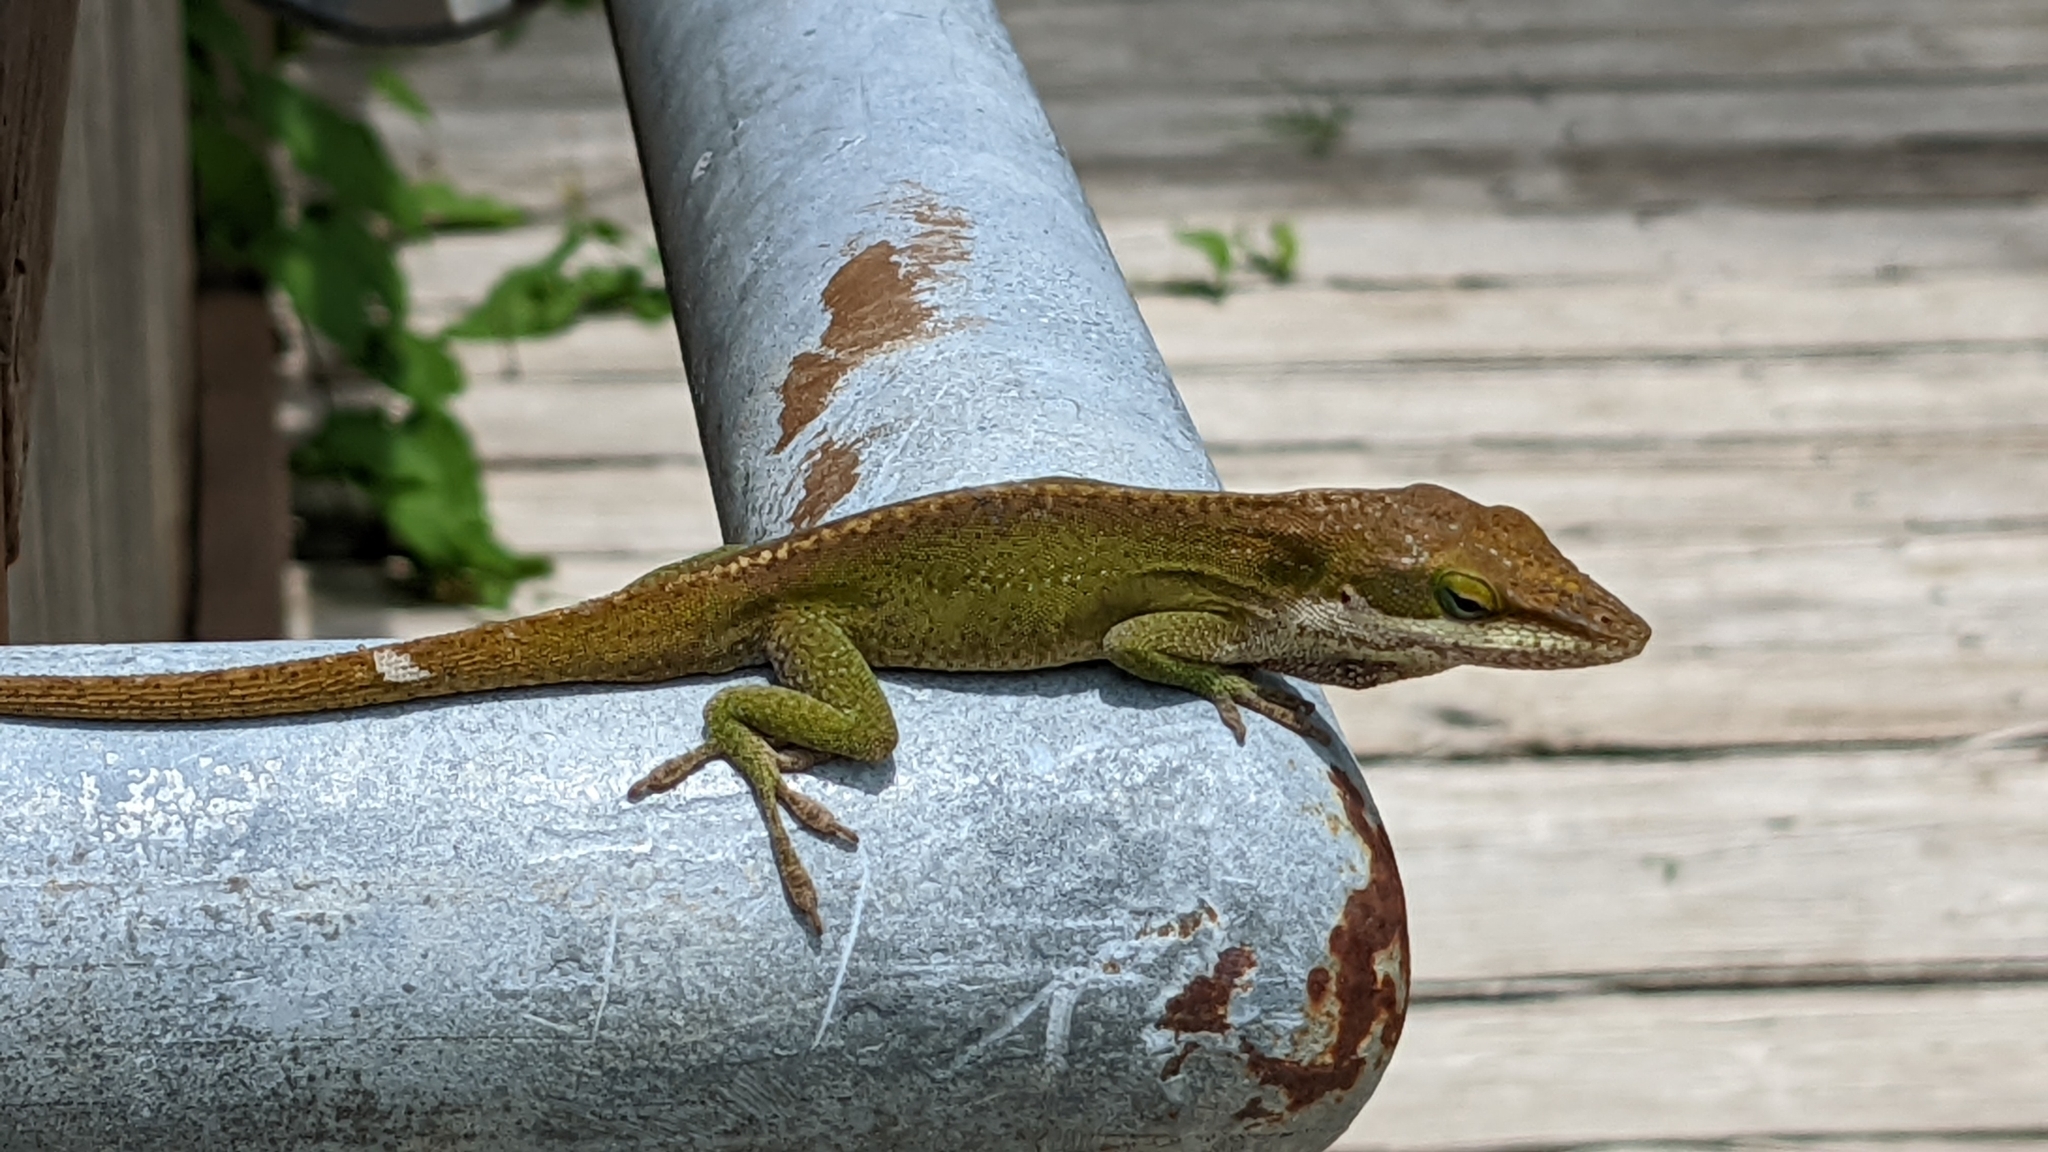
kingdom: Animalia
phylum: Chordata
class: Squamata
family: Dactyloidae
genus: Anolis
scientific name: Anolis carolinensis
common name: Green anole
